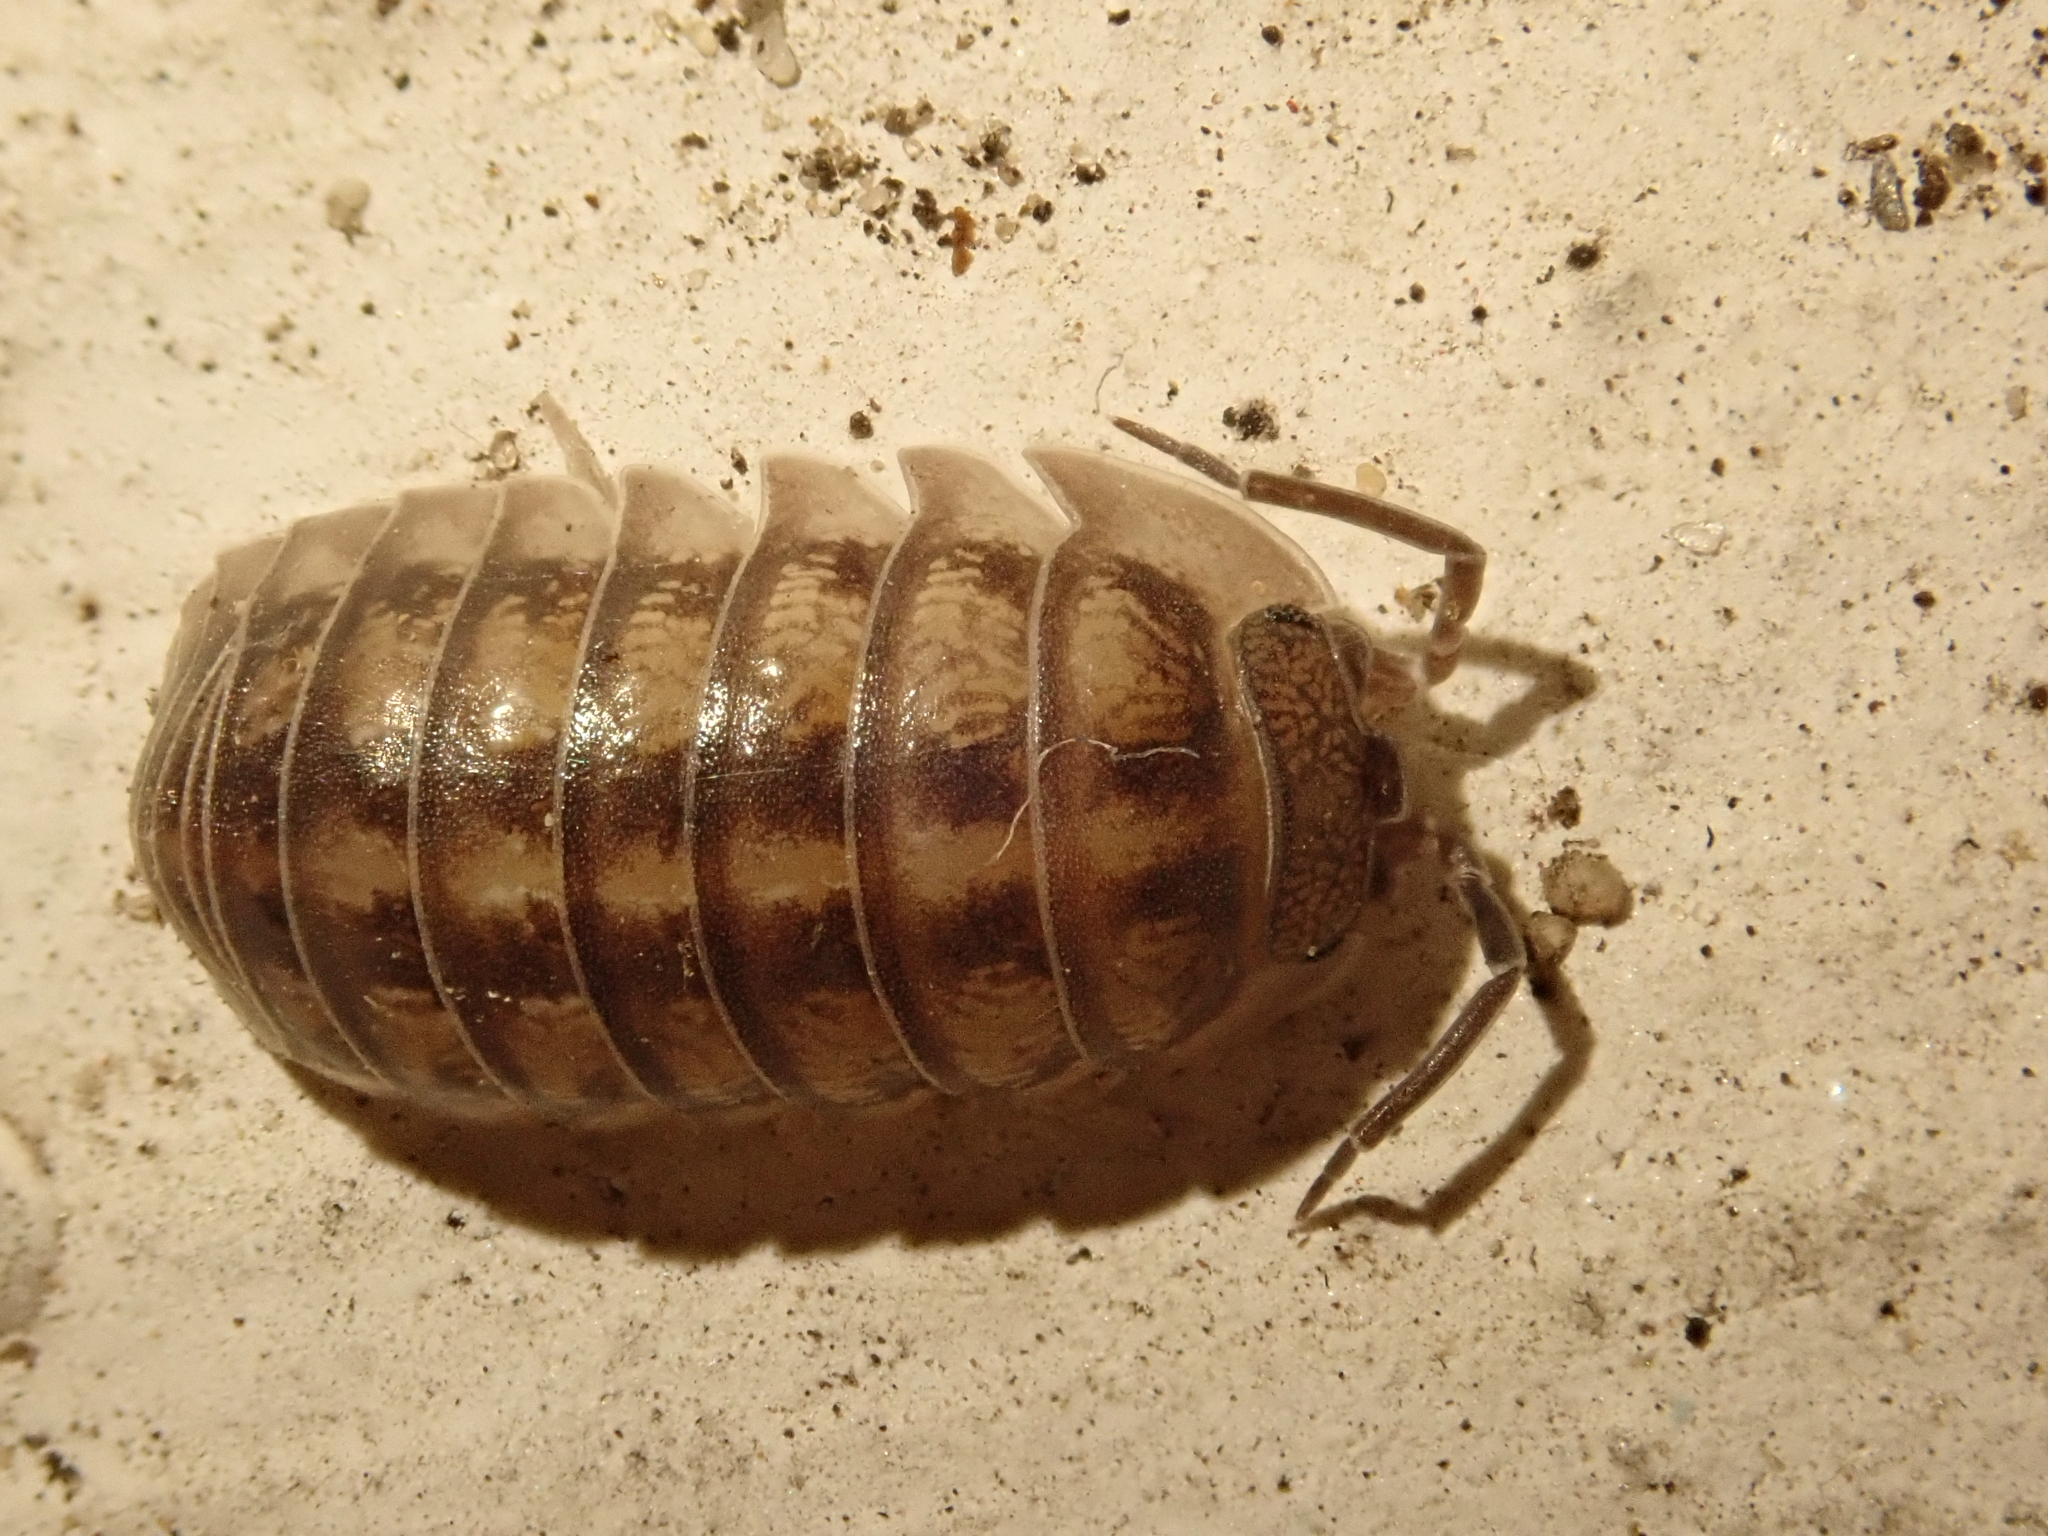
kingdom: Animalia
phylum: Arthropoda
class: Malacostraca
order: Isopoda
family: Armadillidiidae
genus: Armadillidium
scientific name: Armadillidium nasatum
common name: Isopod
